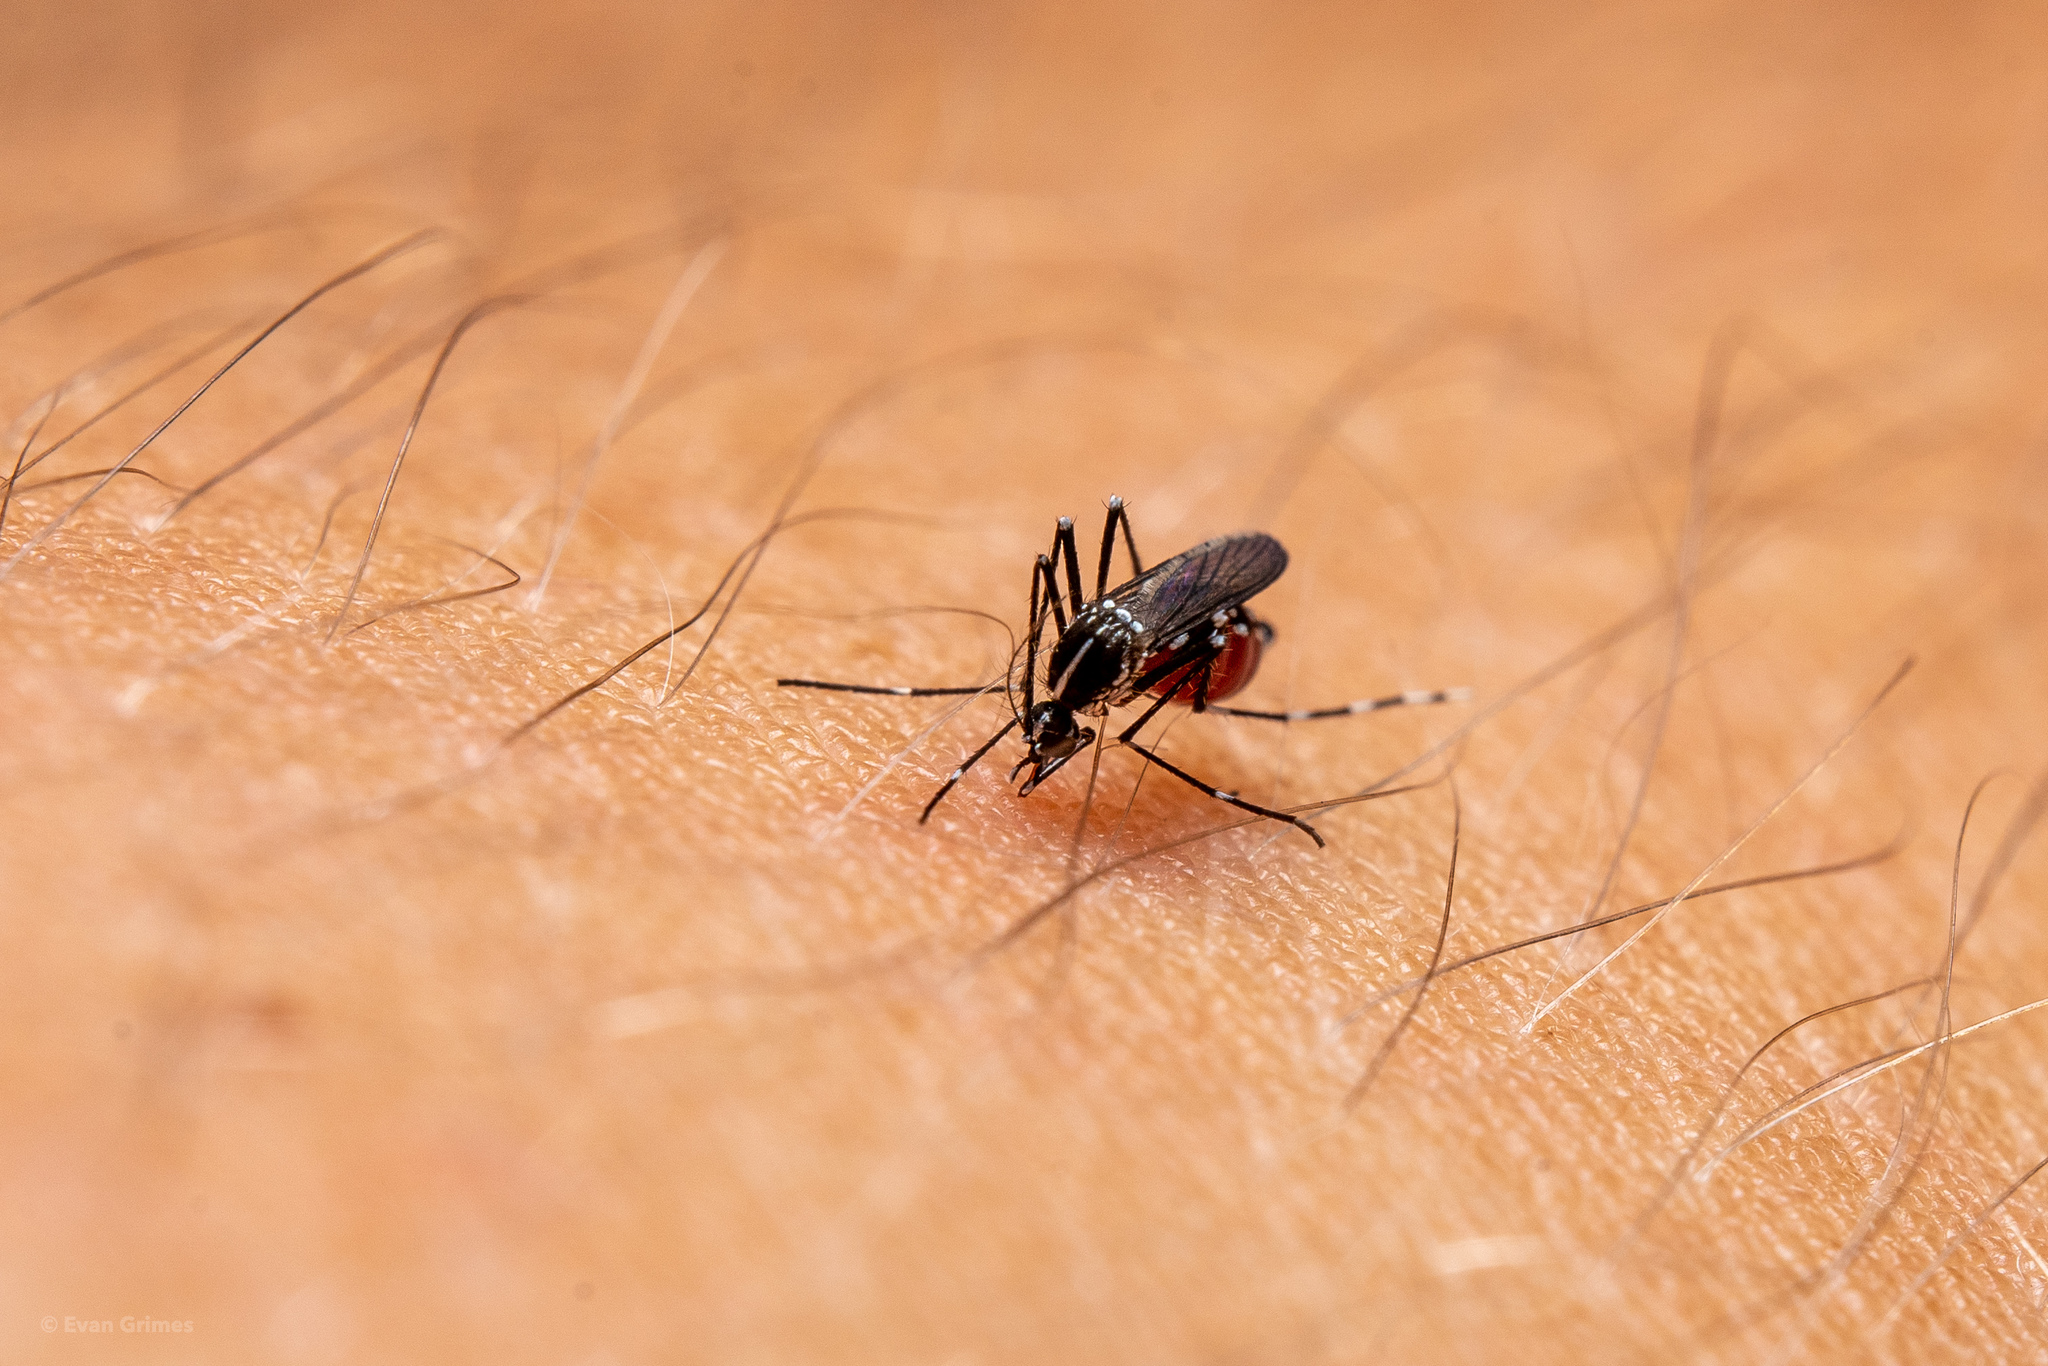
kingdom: Animalia
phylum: Arthropoda
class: Insecta
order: Diptera
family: Culicidae
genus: Aedes
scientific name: Aedes albopictus
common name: Tiger mosquito
